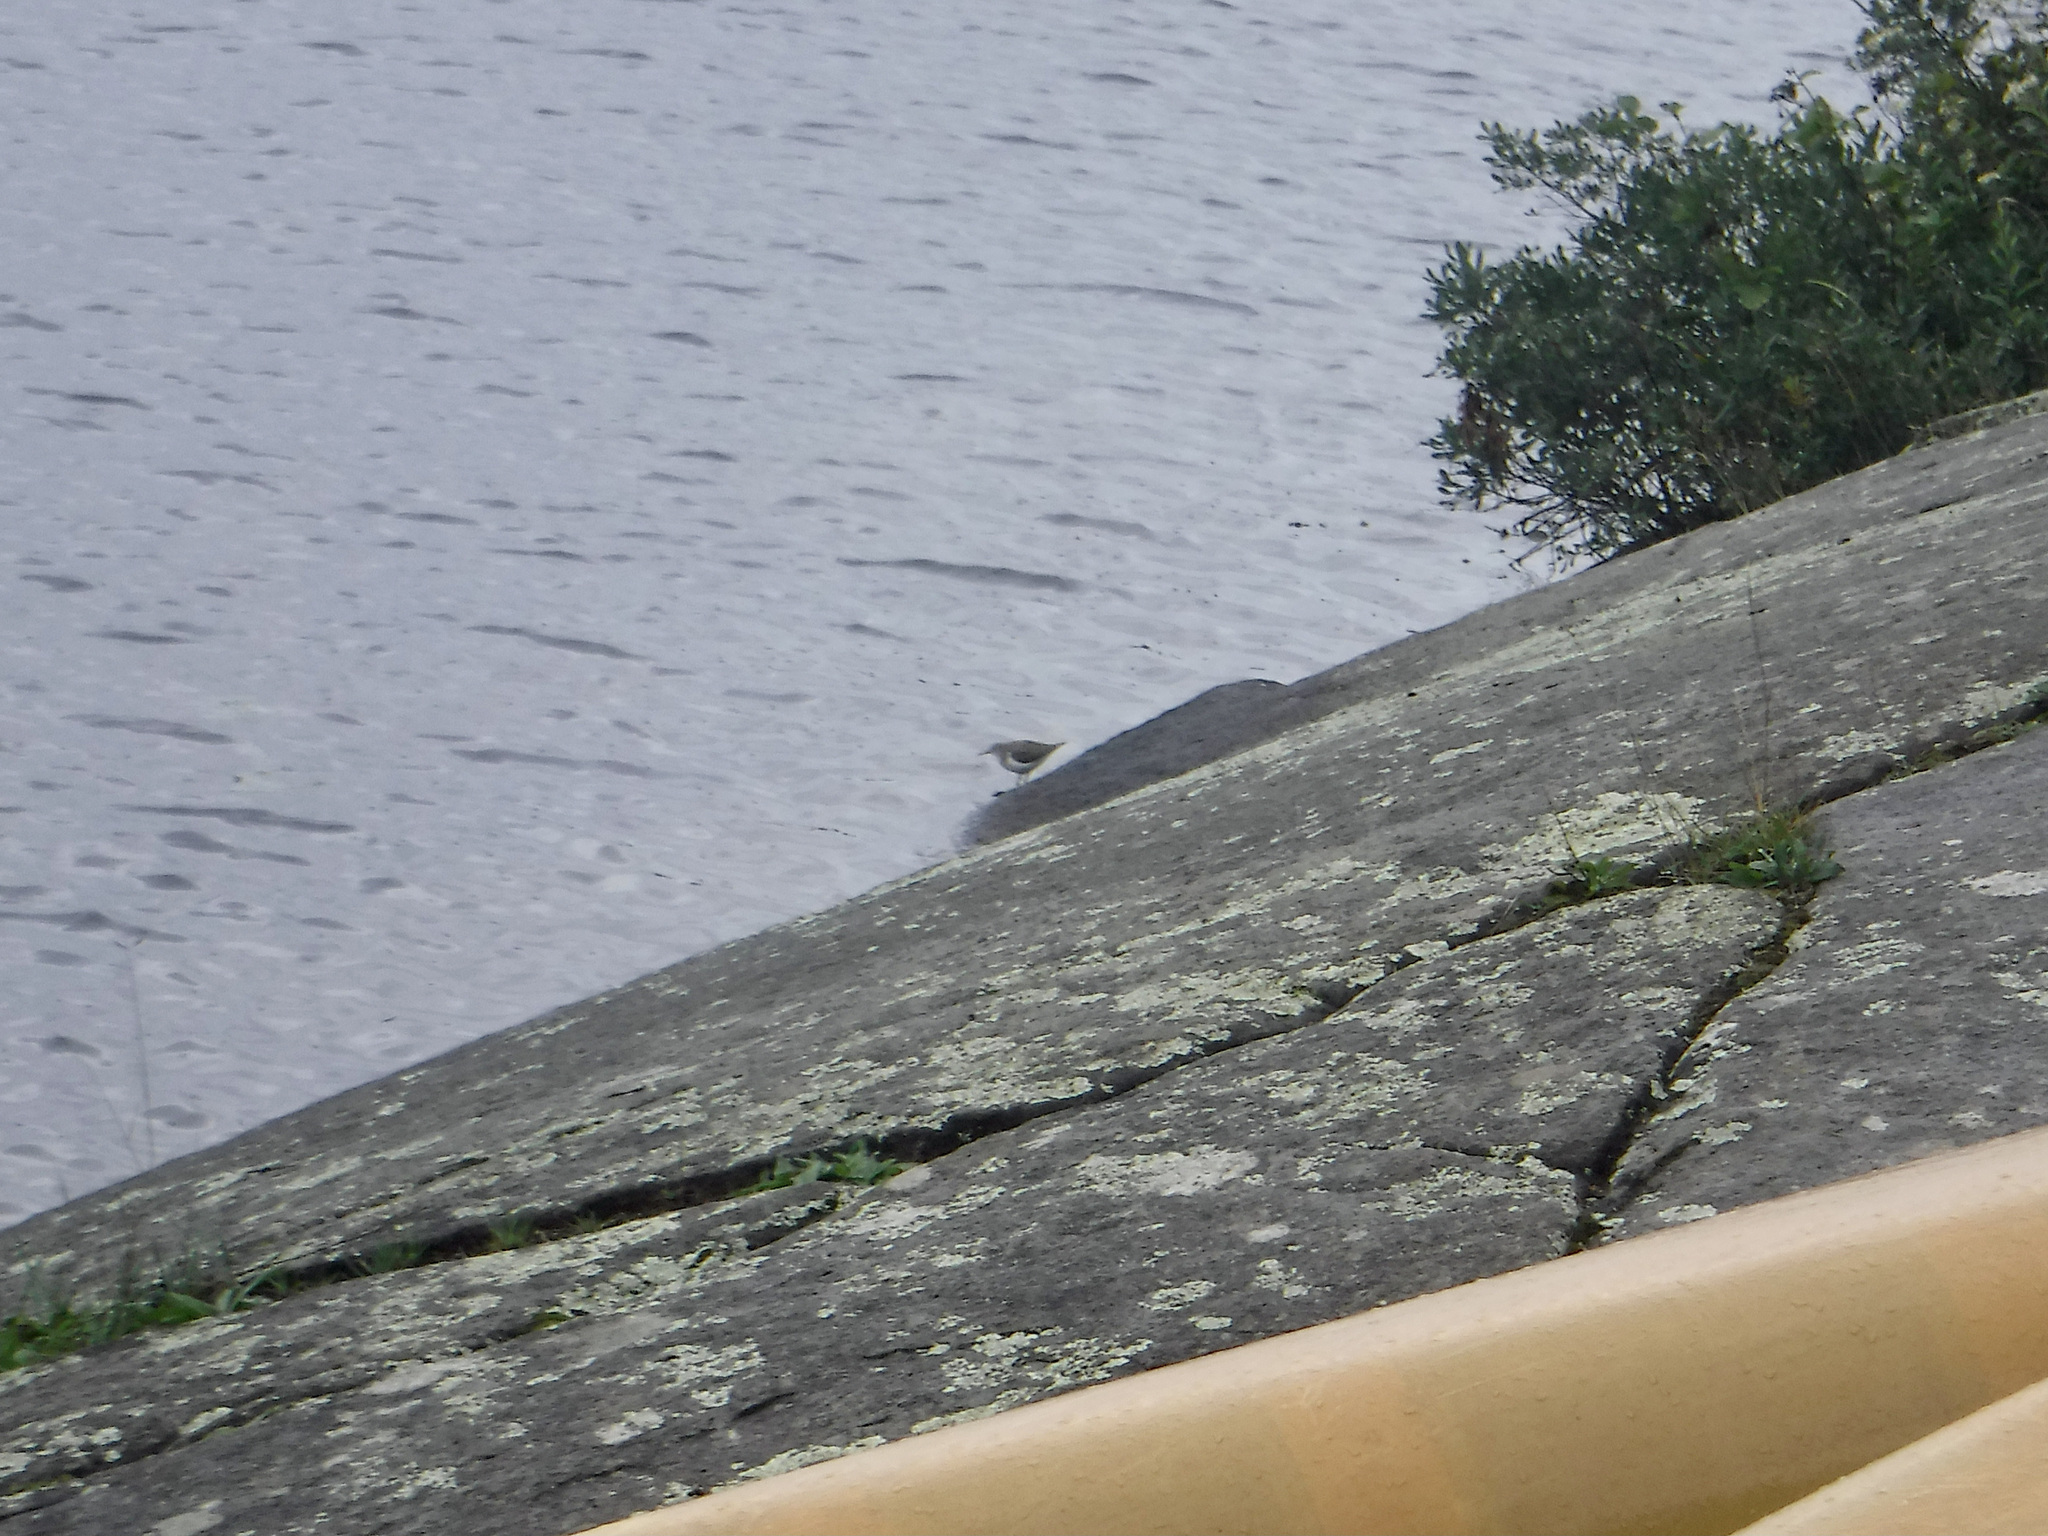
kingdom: Animalia
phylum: Chordata
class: Aves
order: Charadriiformes
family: Scolopacidae
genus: Actitis
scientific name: Actitis macularius
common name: Spotted sandpiper
